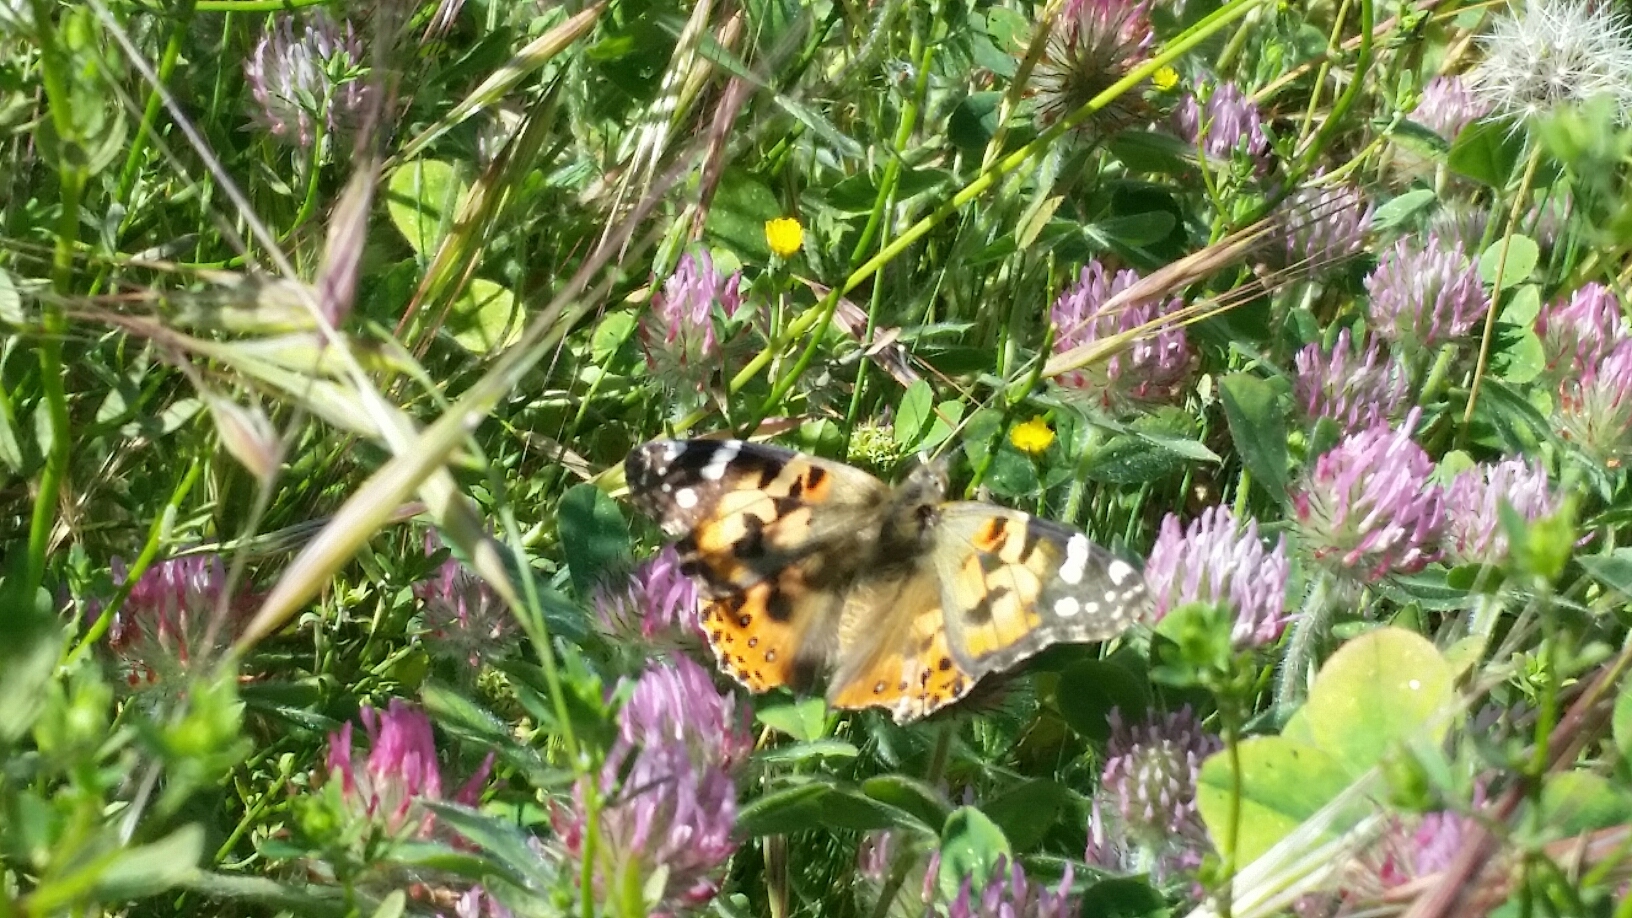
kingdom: Animalia
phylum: Arthropoda
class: Insecta
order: Lepidoptera
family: Nymphalidae
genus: Vanessa
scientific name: Vanessa cardui
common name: Painted lady
